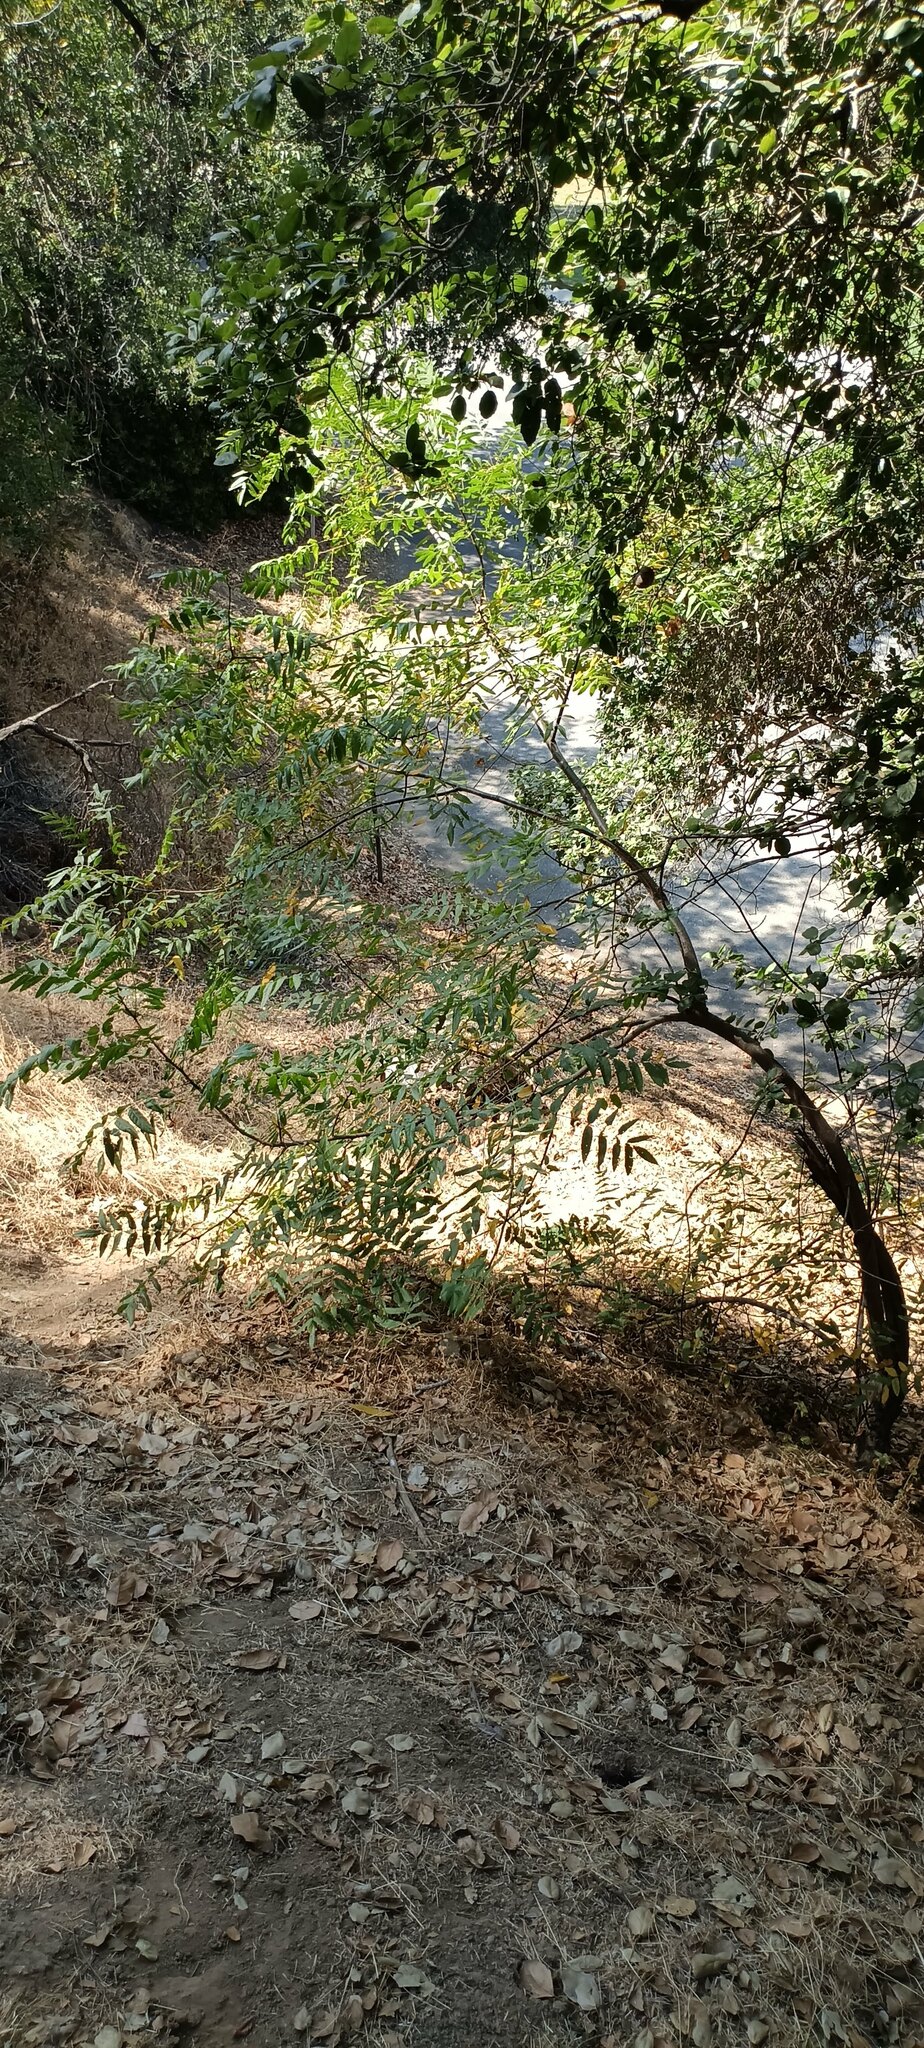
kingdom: Plantae
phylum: Tracheophyta
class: Magnoliopsida
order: Fagales
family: Juglandaceae
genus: Juglans
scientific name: Juglans californica
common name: Southern california black walnut
